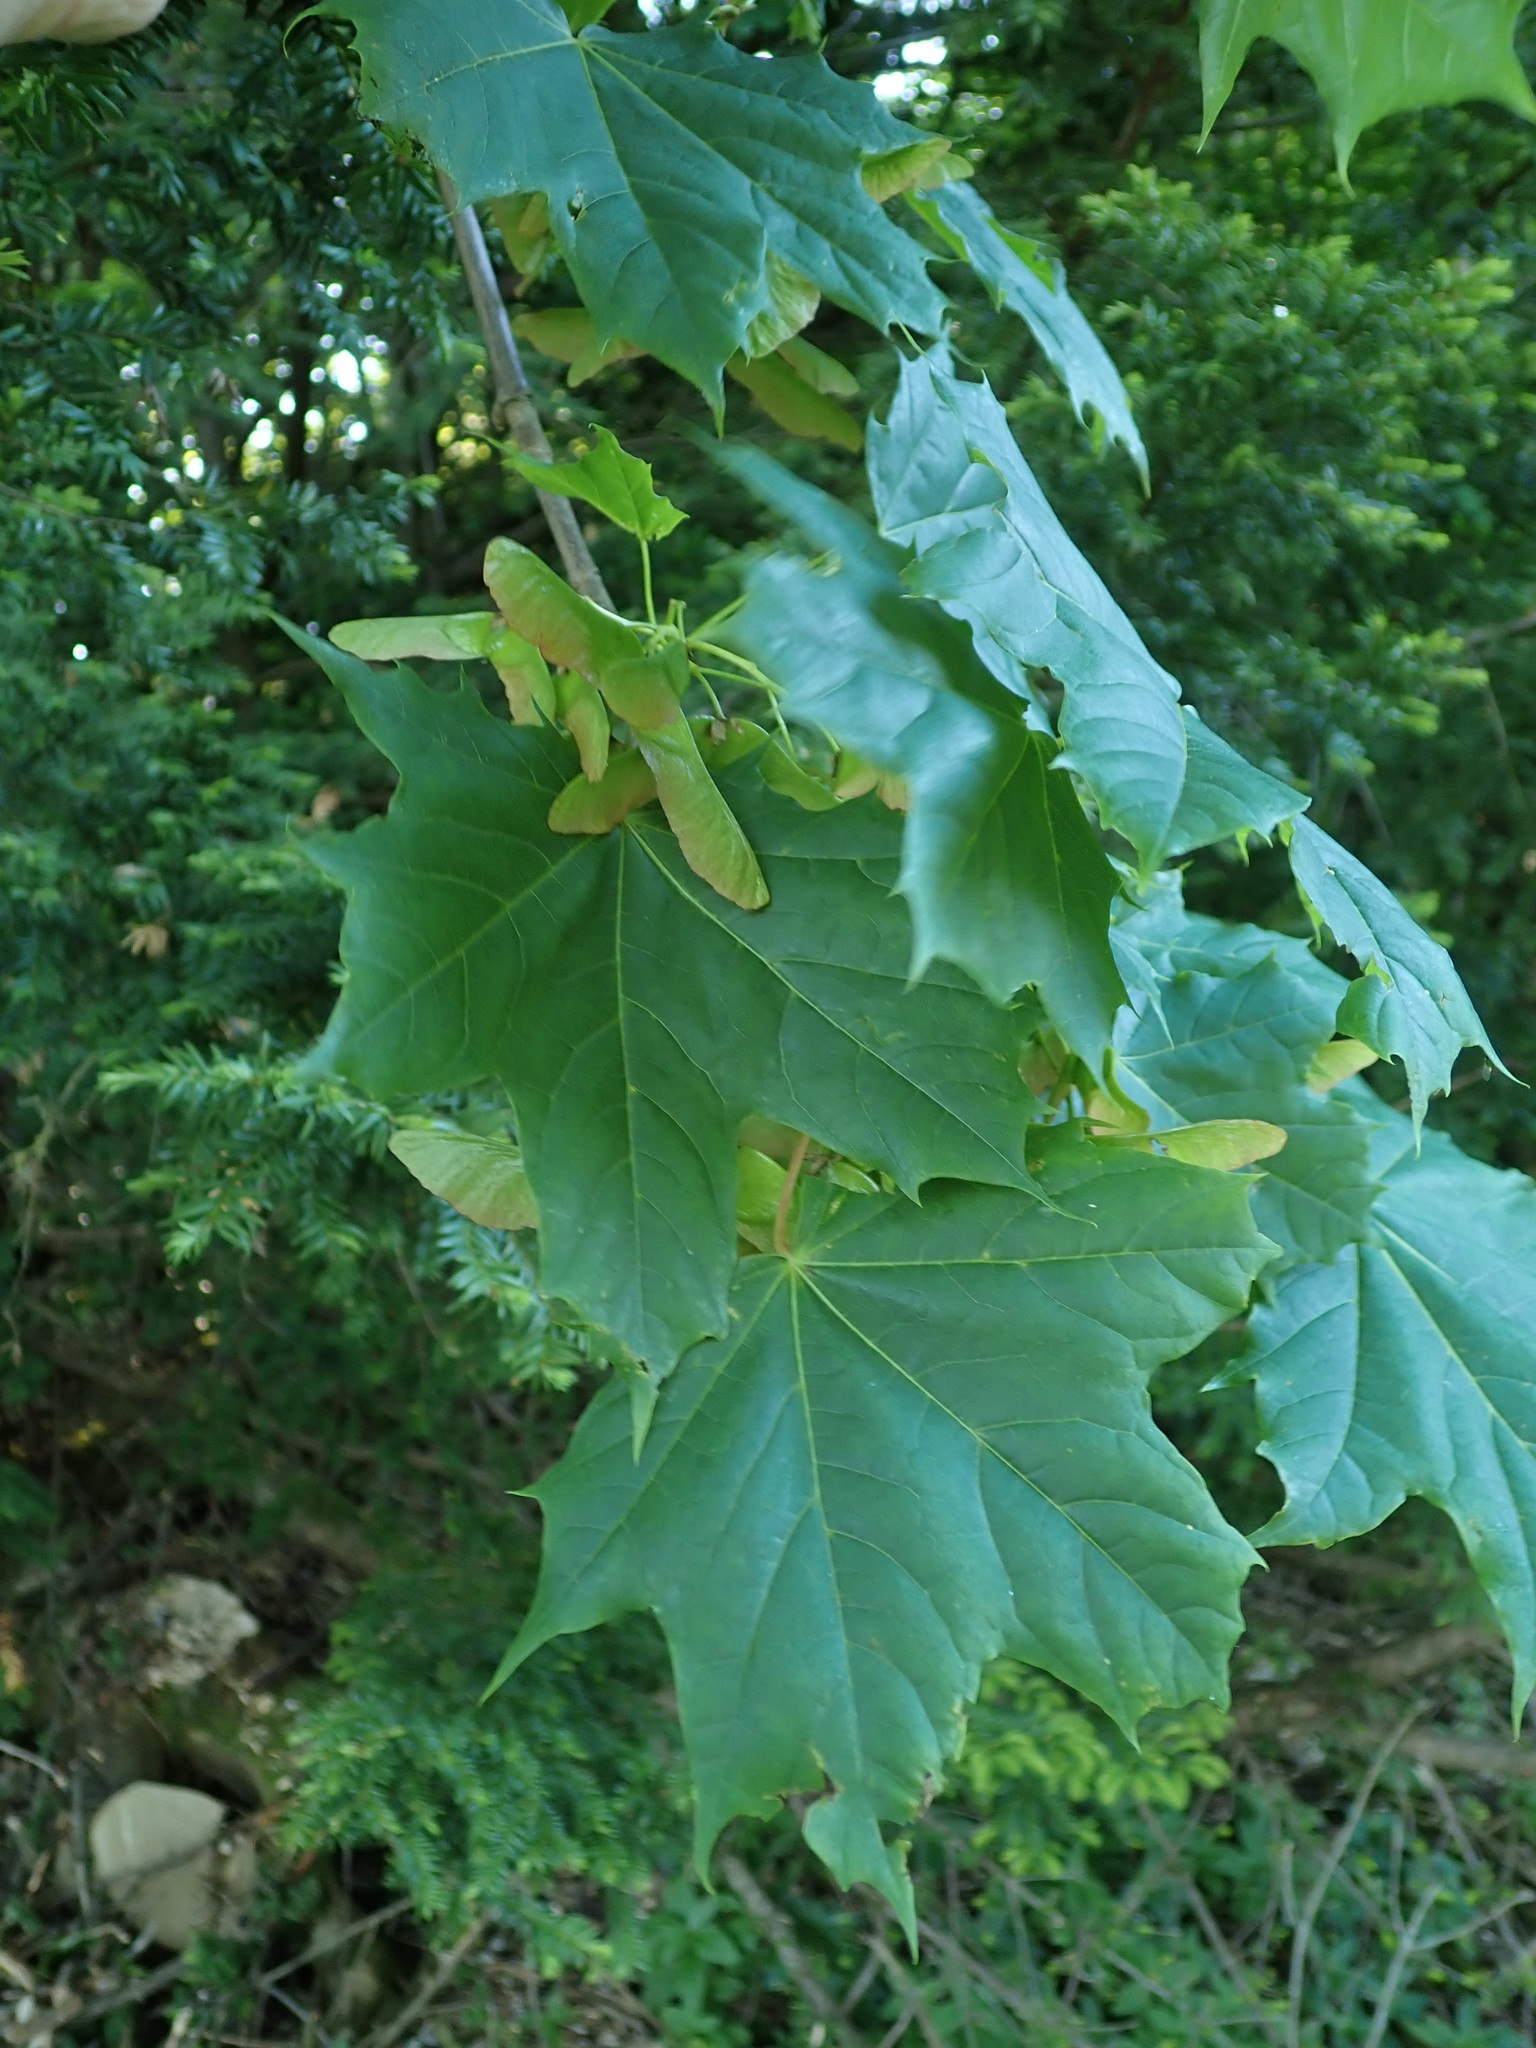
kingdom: Plantae
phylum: Tracheophyta
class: Magnoliopsida
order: Sapindales
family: Sapindaceae
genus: Acer
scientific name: Acer platanoides
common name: Norway maple
